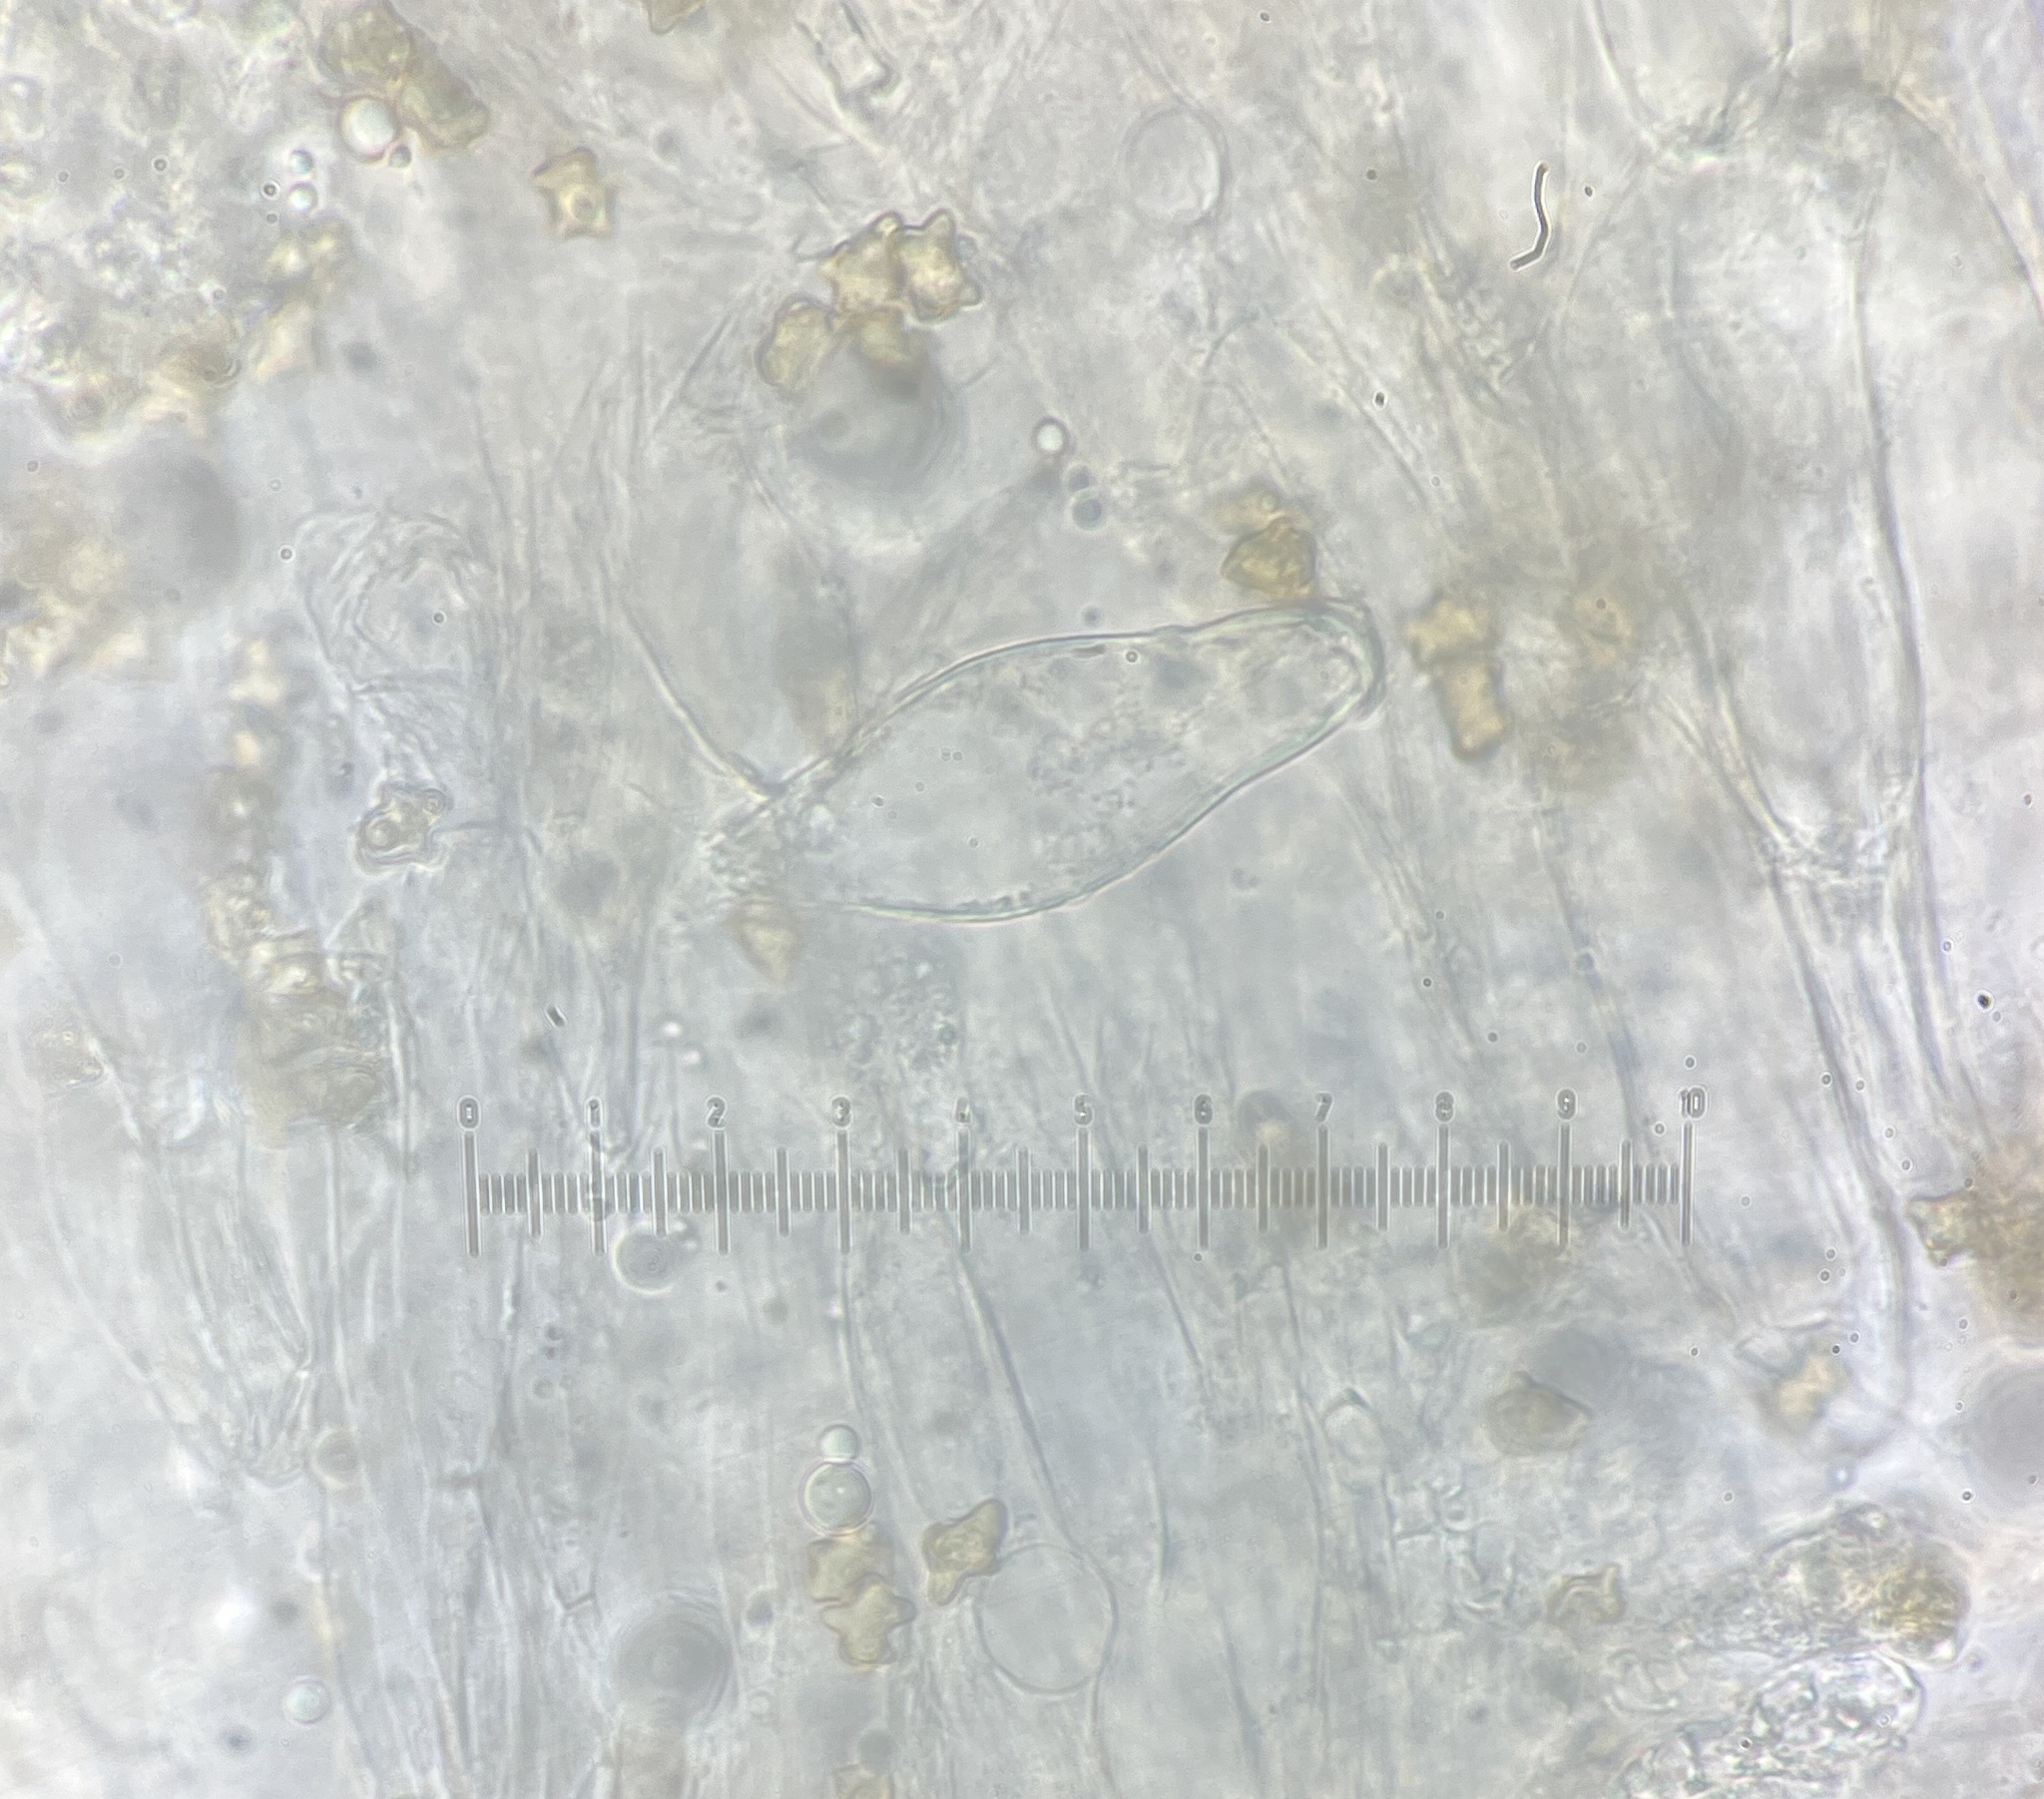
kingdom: Fungi
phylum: Basidiomycota
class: Agaricomycetes
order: Agaricales
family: Inocybaceae
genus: Inocybe
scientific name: Inocybe
